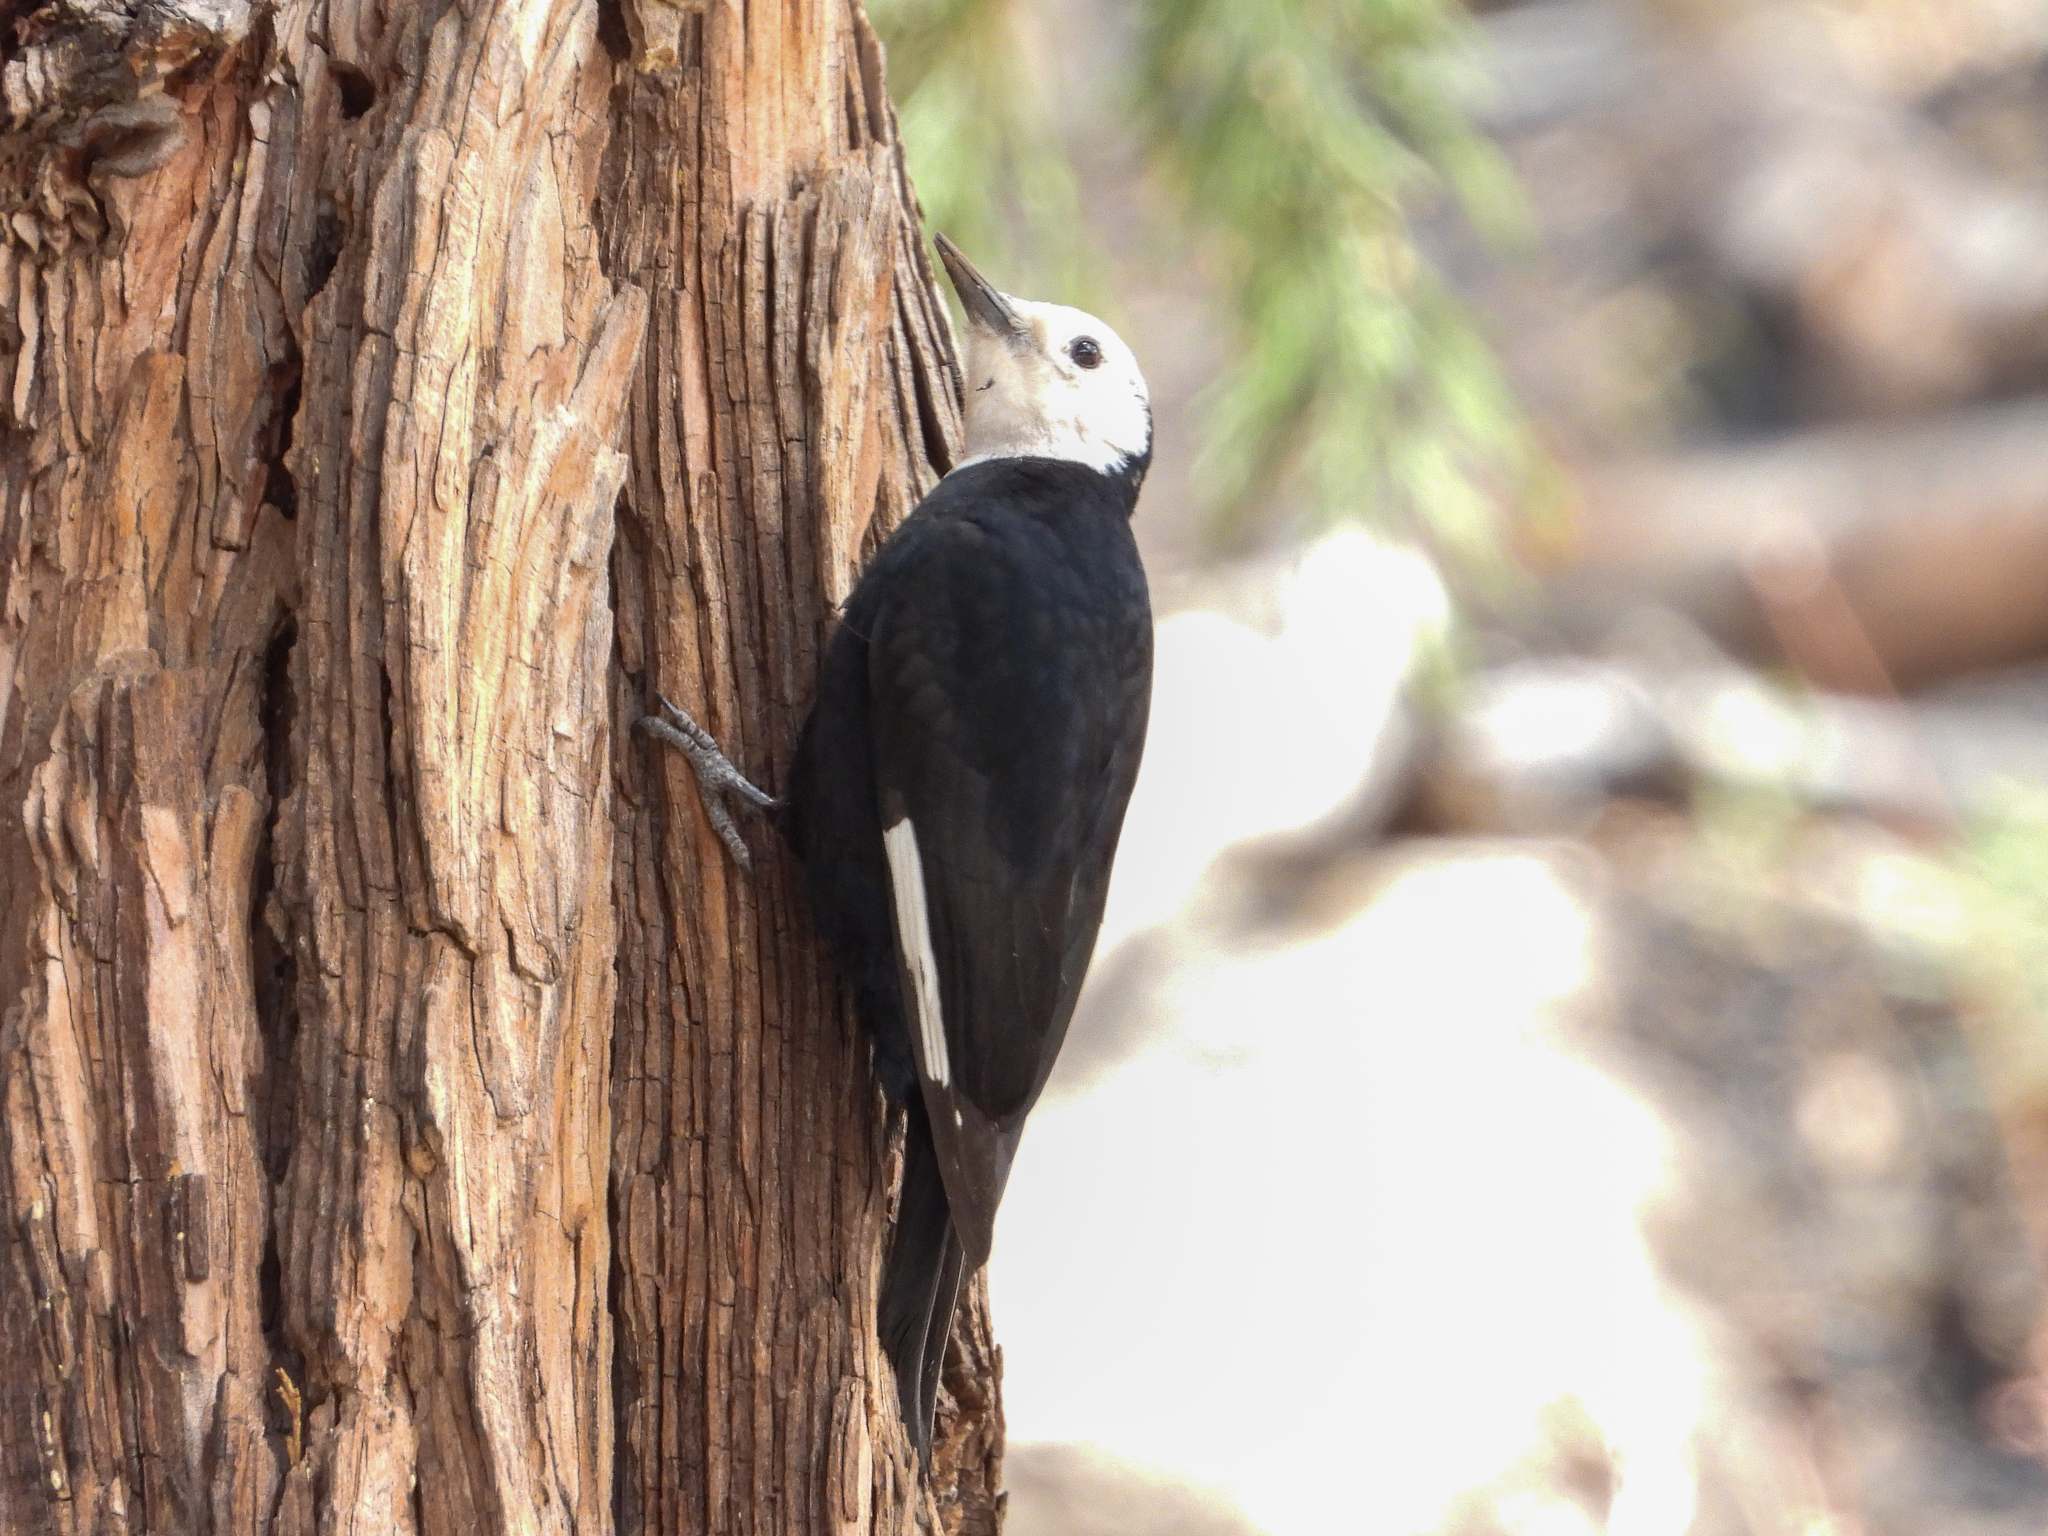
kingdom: Animalia
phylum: Chordata
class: Aves
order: Piciformes
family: Picidae
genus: Leuconotopicus
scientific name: Leuconotopicus albolarvatus
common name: White-headed woodpecker
